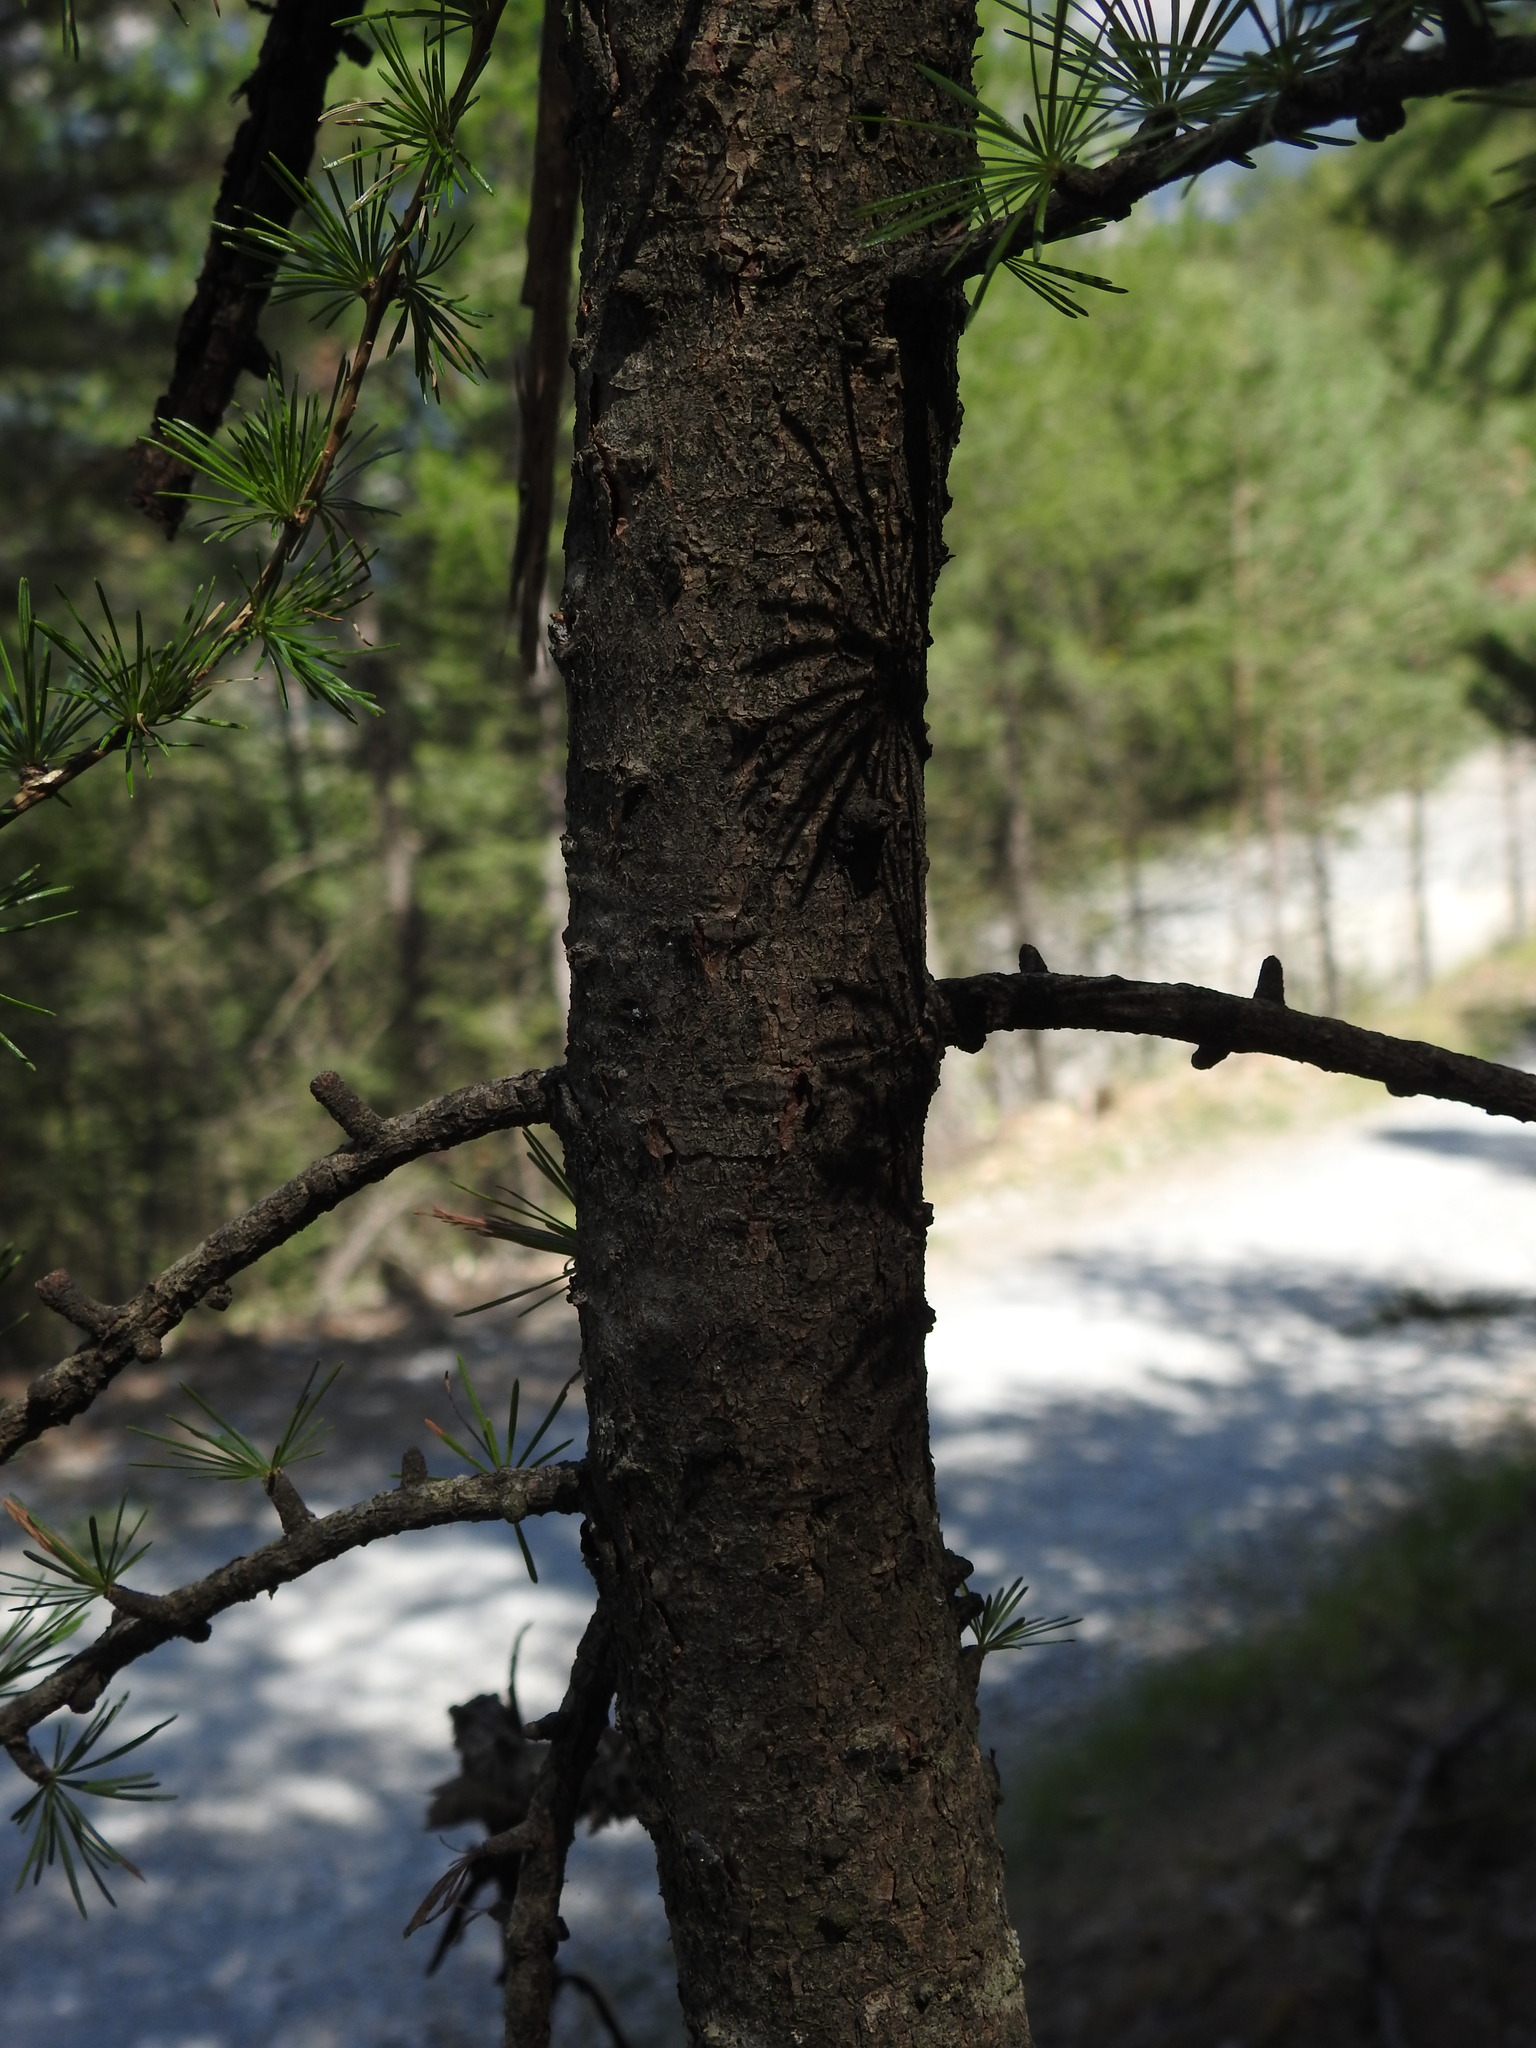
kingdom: Plantae
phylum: Tracheophyta
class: Pinopsida
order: Pinales
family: Pinaceae
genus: Larix
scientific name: Larix decidua
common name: European larch
